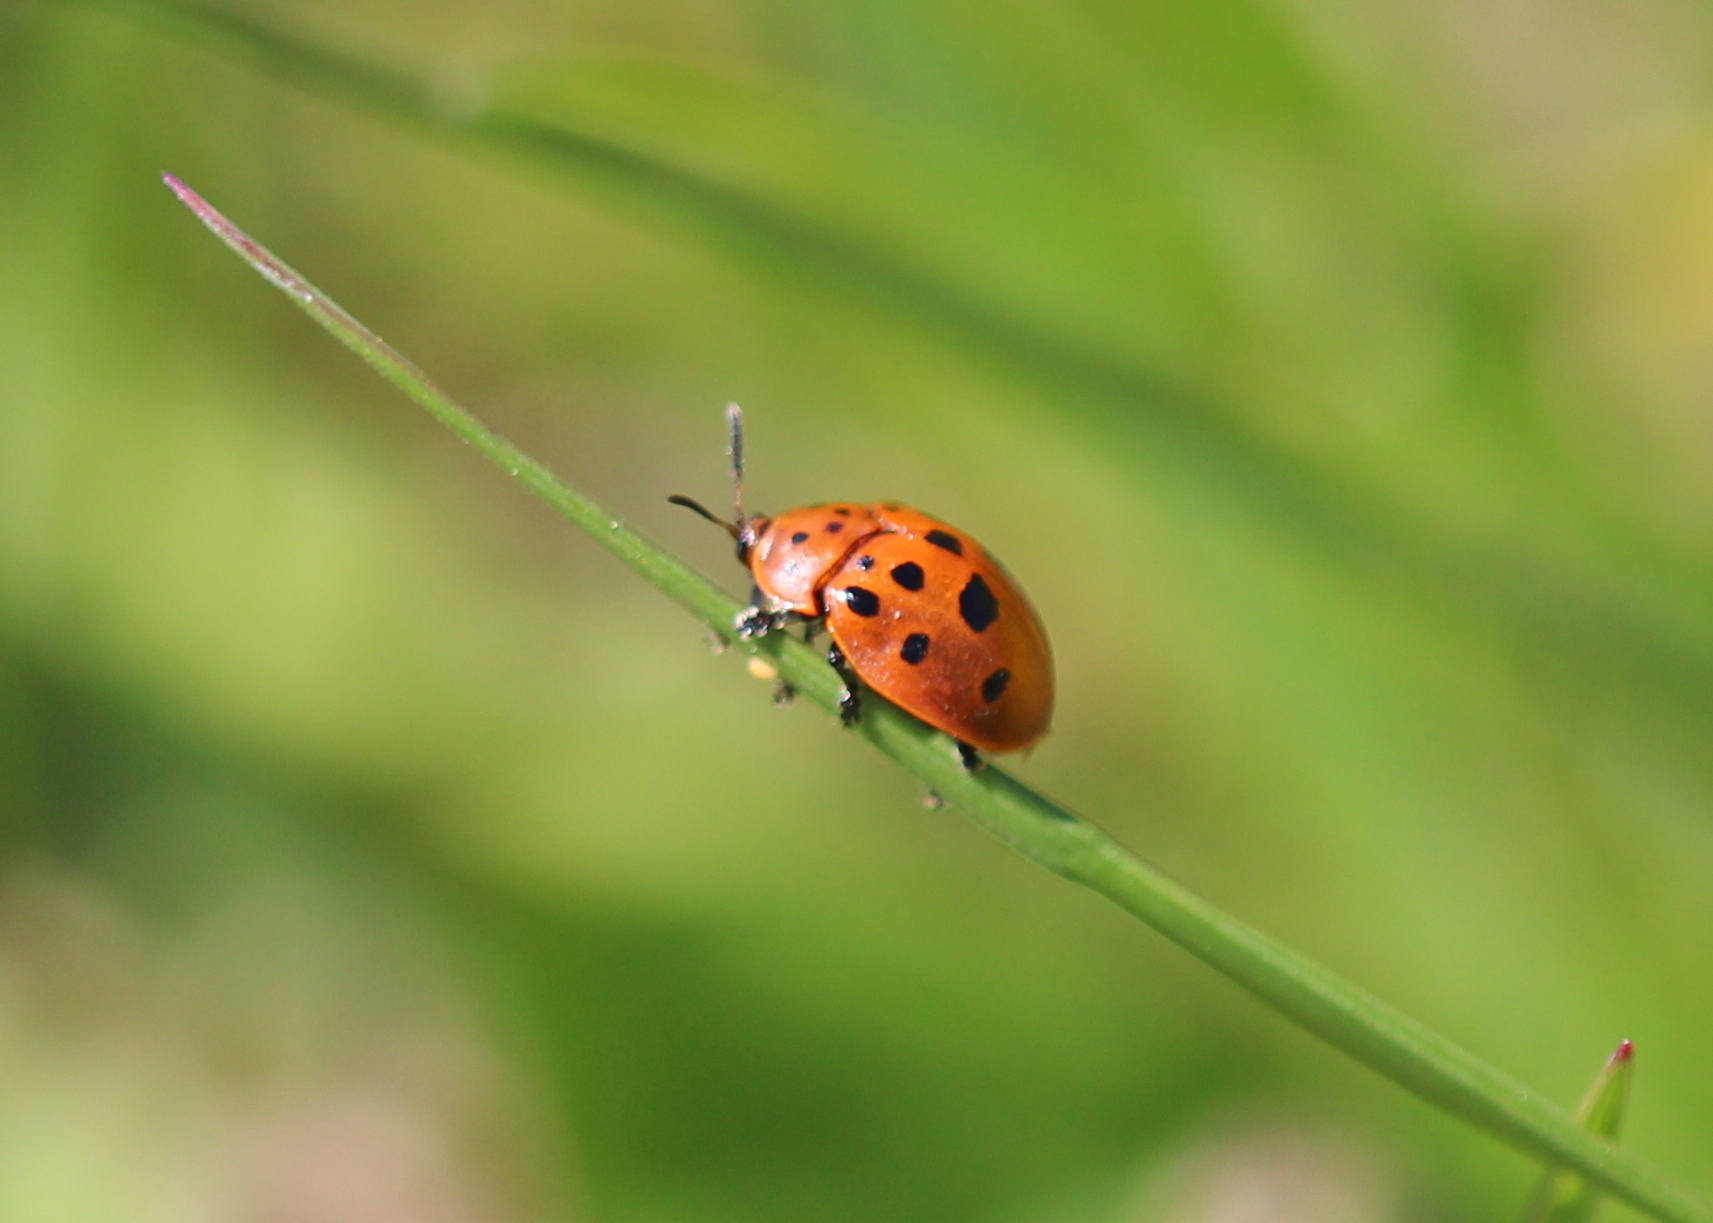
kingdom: Animalia
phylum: Arthropoda
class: Insecta
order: Coleoptera
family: Chrysomelidae
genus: Chelymorpha
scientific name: Chelymorpha cassidea
